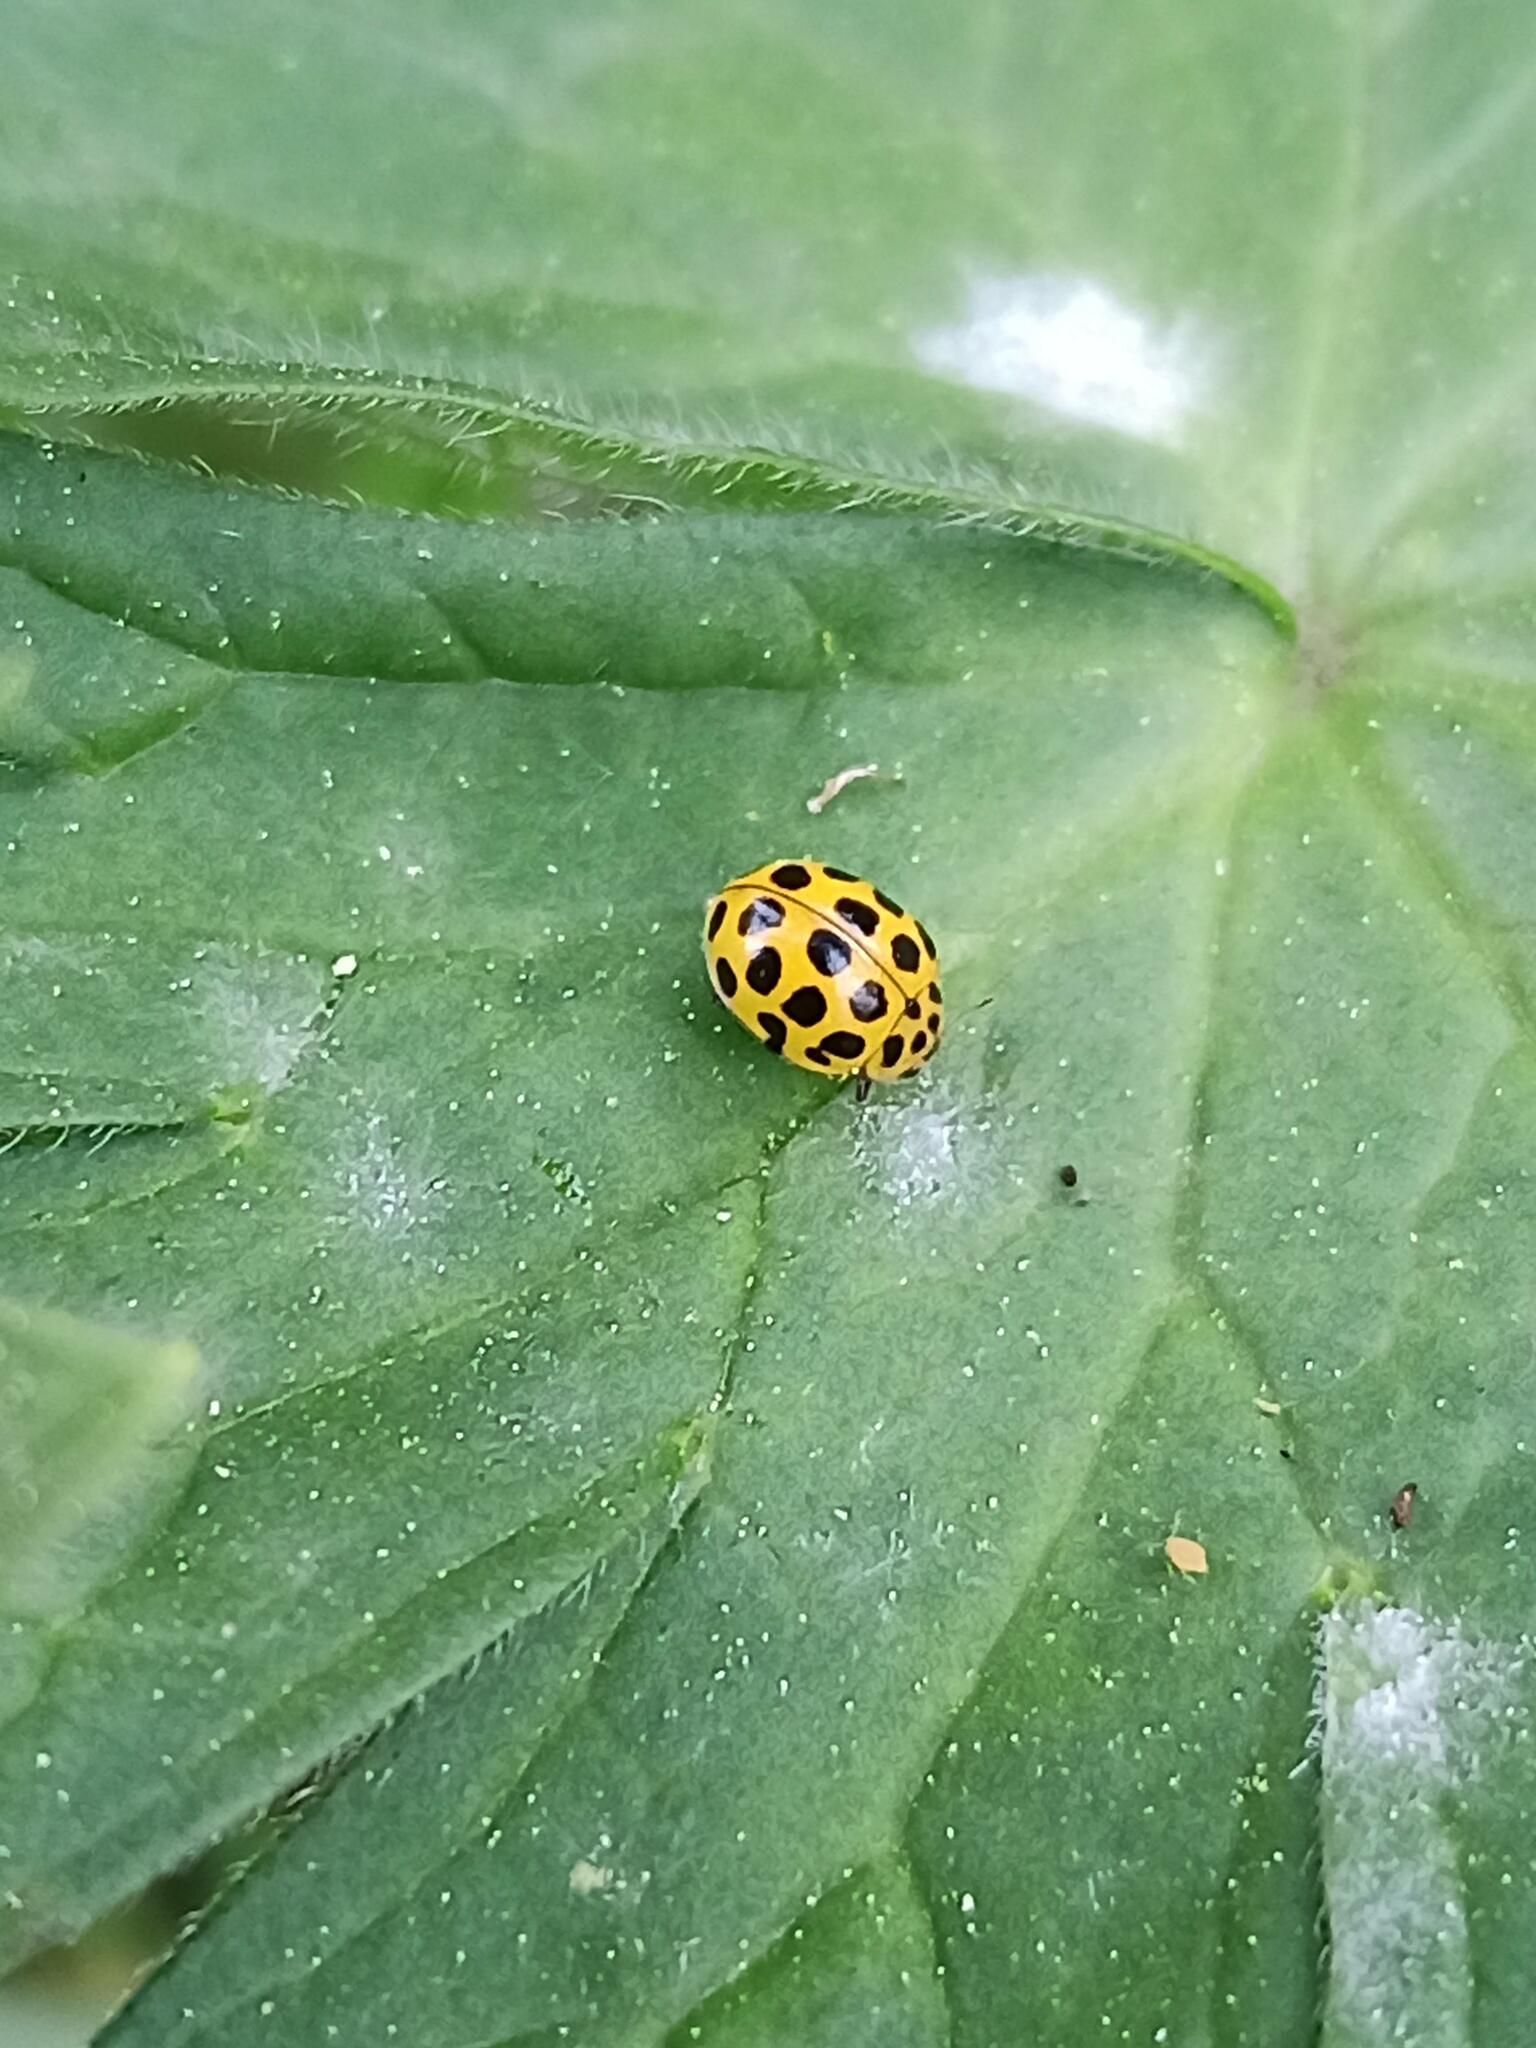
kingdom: Animalia
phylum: Arthropoda
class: Insecta
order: Coleoptera
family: Coccinellidae
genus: Psyllobora
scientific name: Psyllobora vigintiduopunctata
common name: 22-spot ladybird
